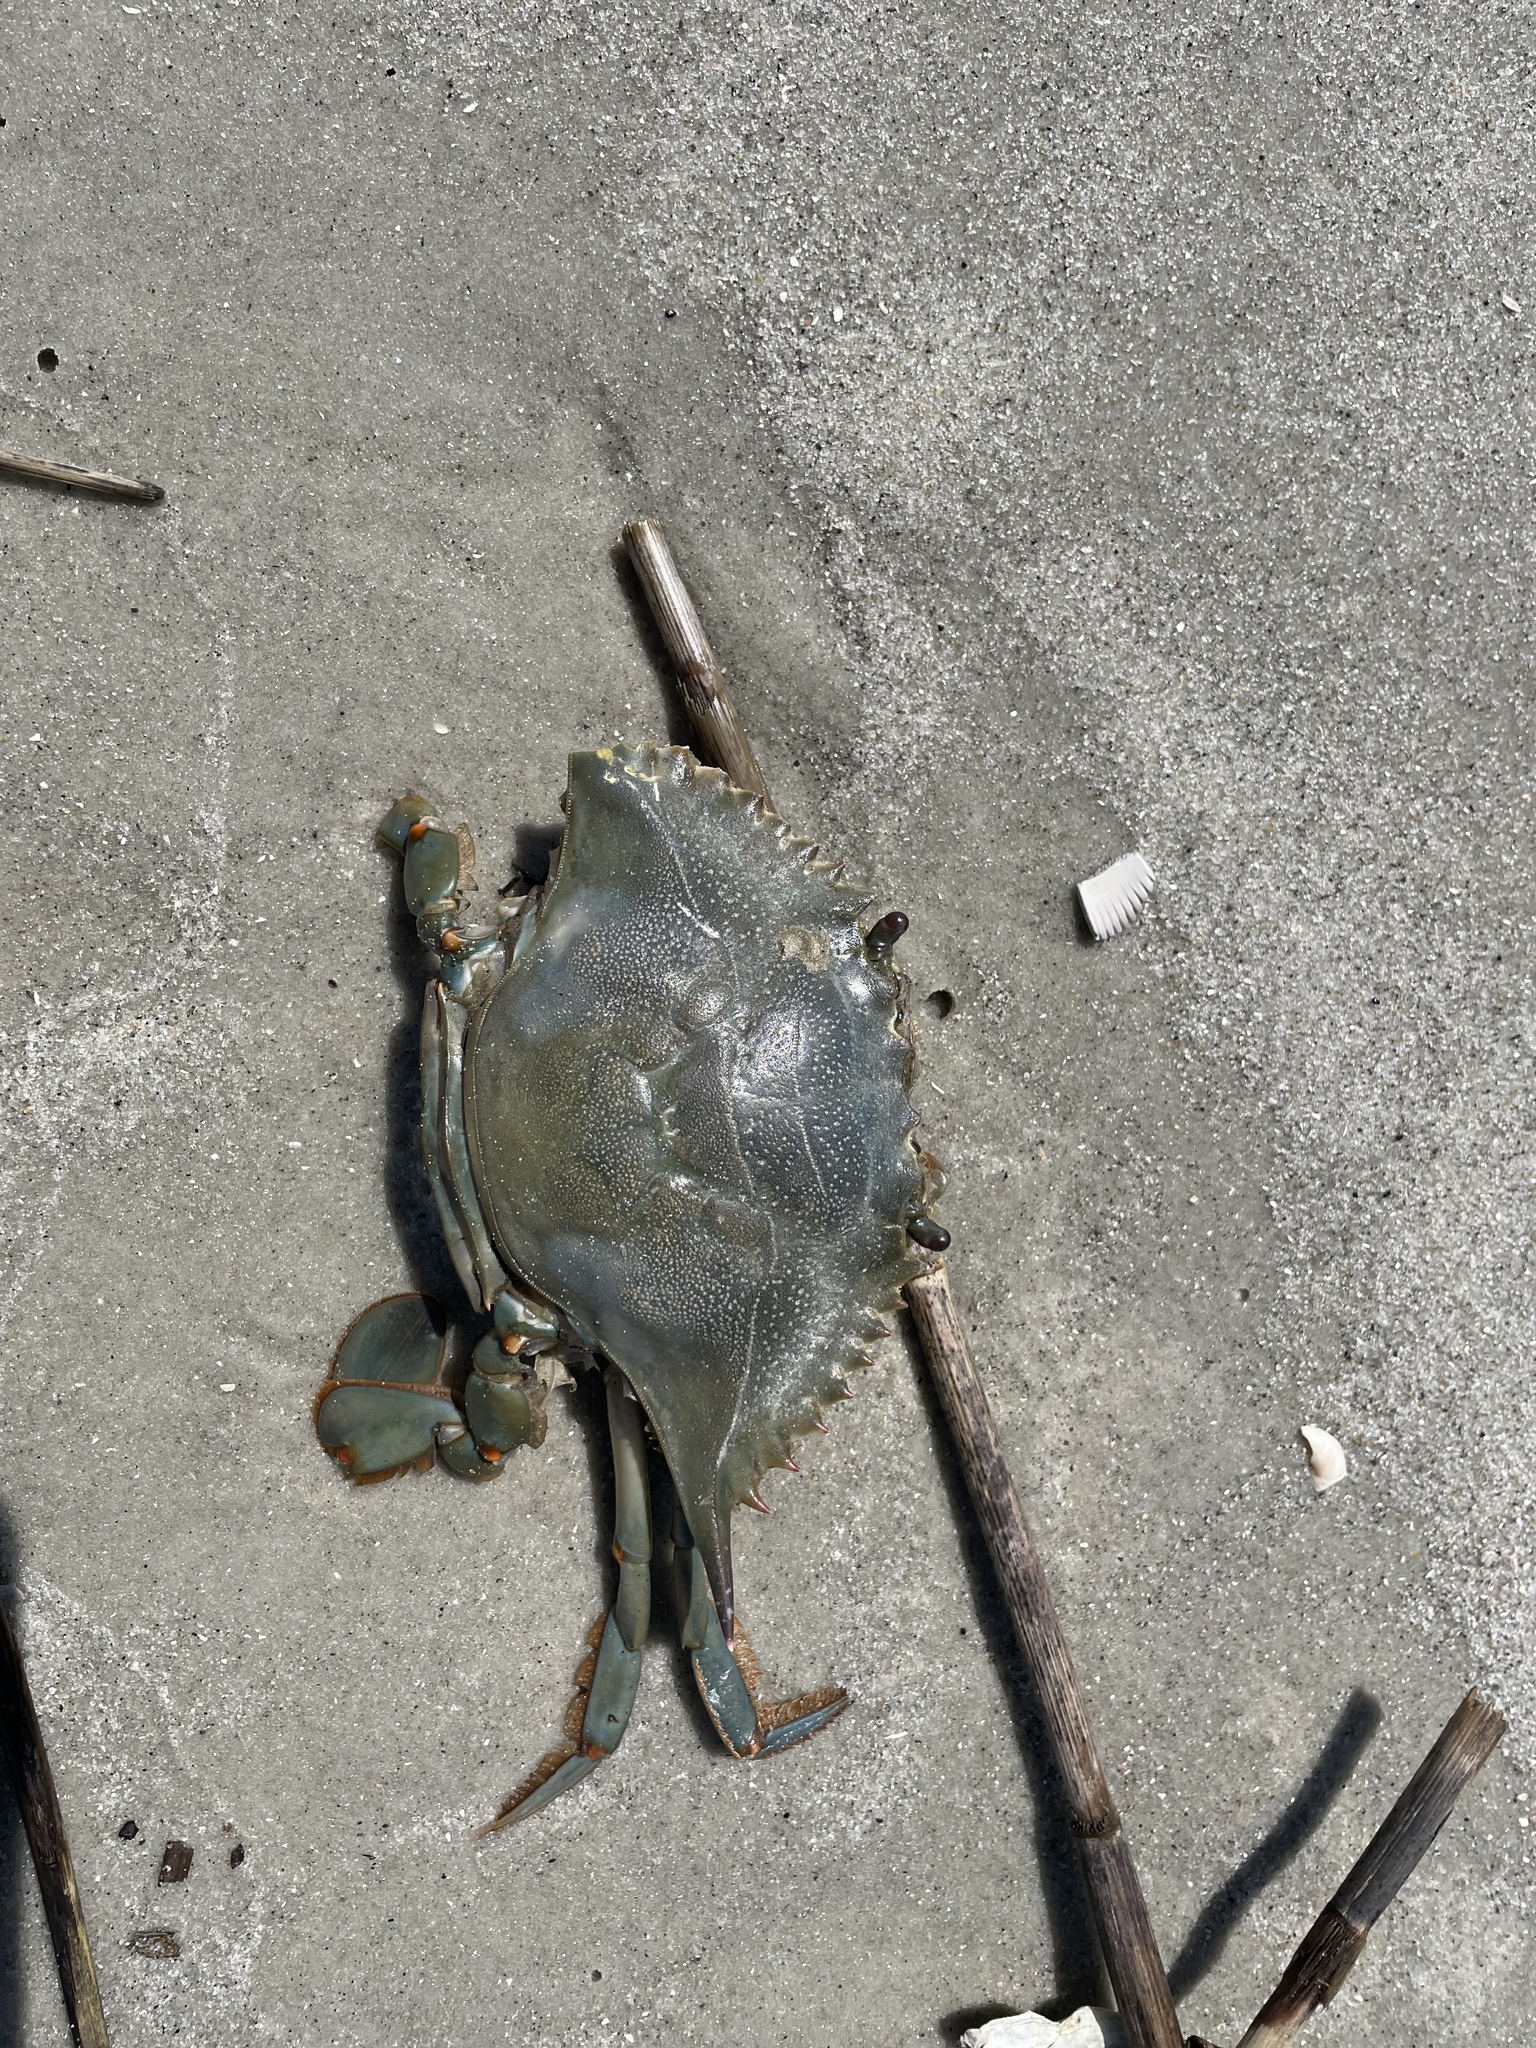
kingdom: Animalia
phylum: Arthropoda
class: Malacostraca
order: Decapoda
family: Portunidae
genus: Callinectes
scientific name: Callinectes sapidus
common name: Blue crab
